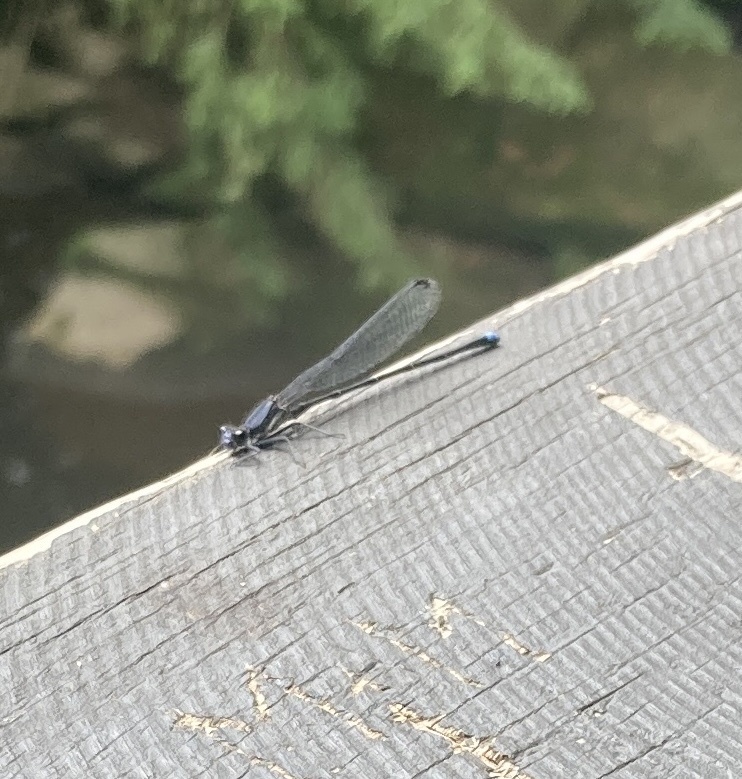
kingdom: Animalia
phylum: Arthropoda
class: Insecta
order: Odonata
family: Coenagrionidae
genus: Argia
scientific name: Argia tibialis
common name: Blue-tipped dancer
